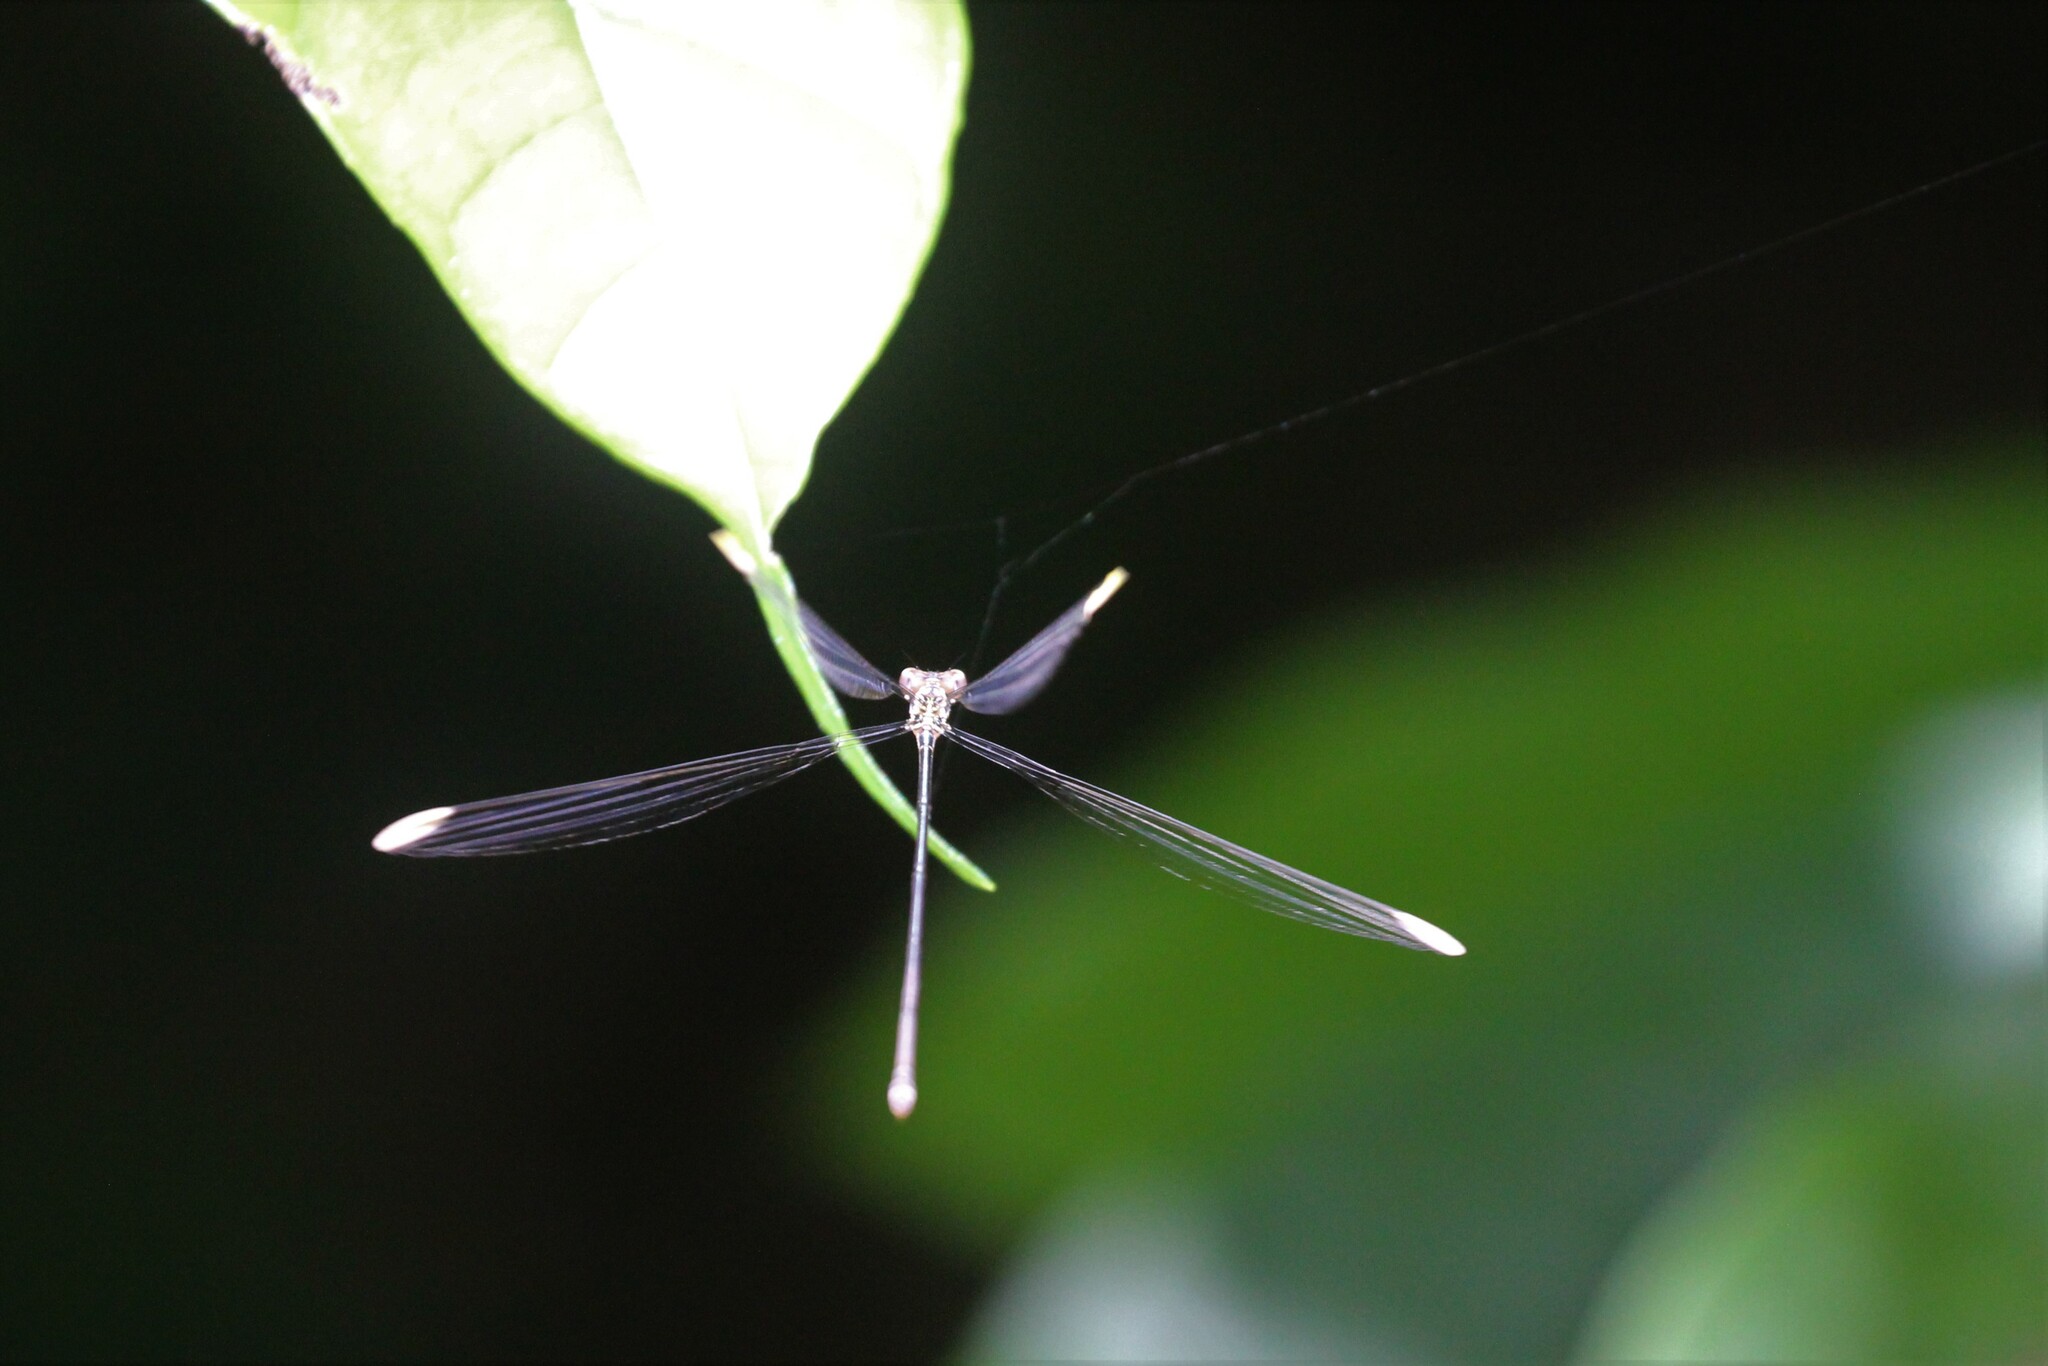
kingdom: Animalia
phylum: Arthropoda
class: Insecta
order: Odonata
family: Coenagrionidae
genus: Mecistogaster
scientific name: Mecistogaster ornata
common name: Ornate helicopter
